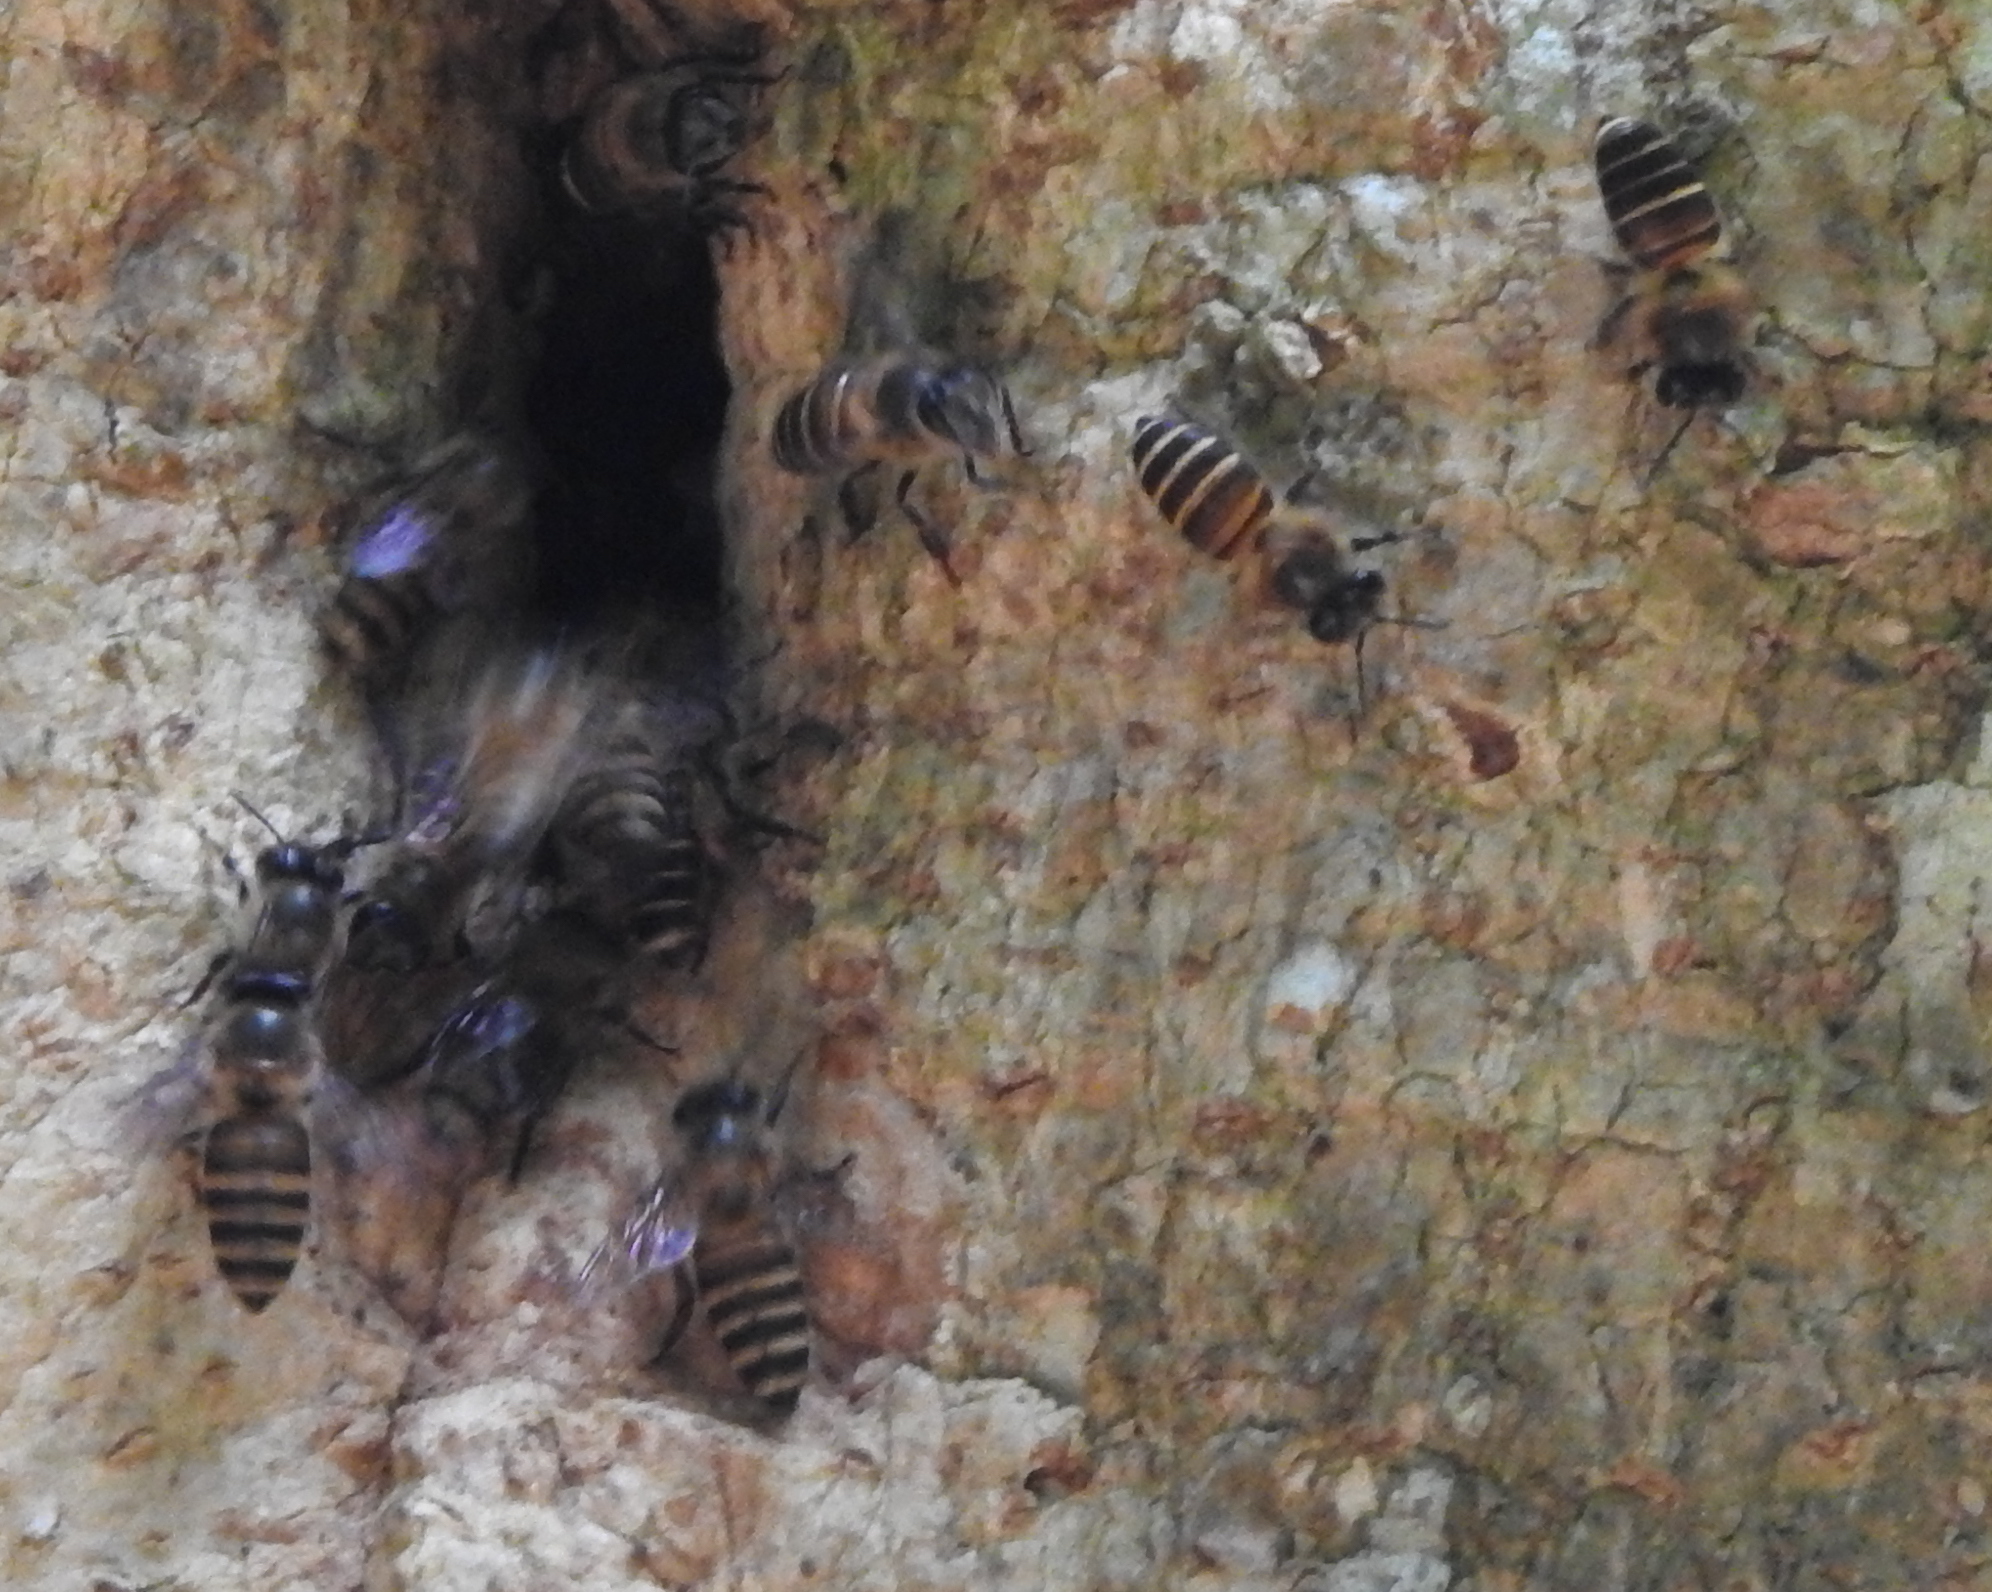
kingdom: Animalia
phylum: Arthropoda
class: Insecta
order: Hymenoptera
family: Apidae
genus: Apis
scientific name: Apis cerana
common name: Honey bee
